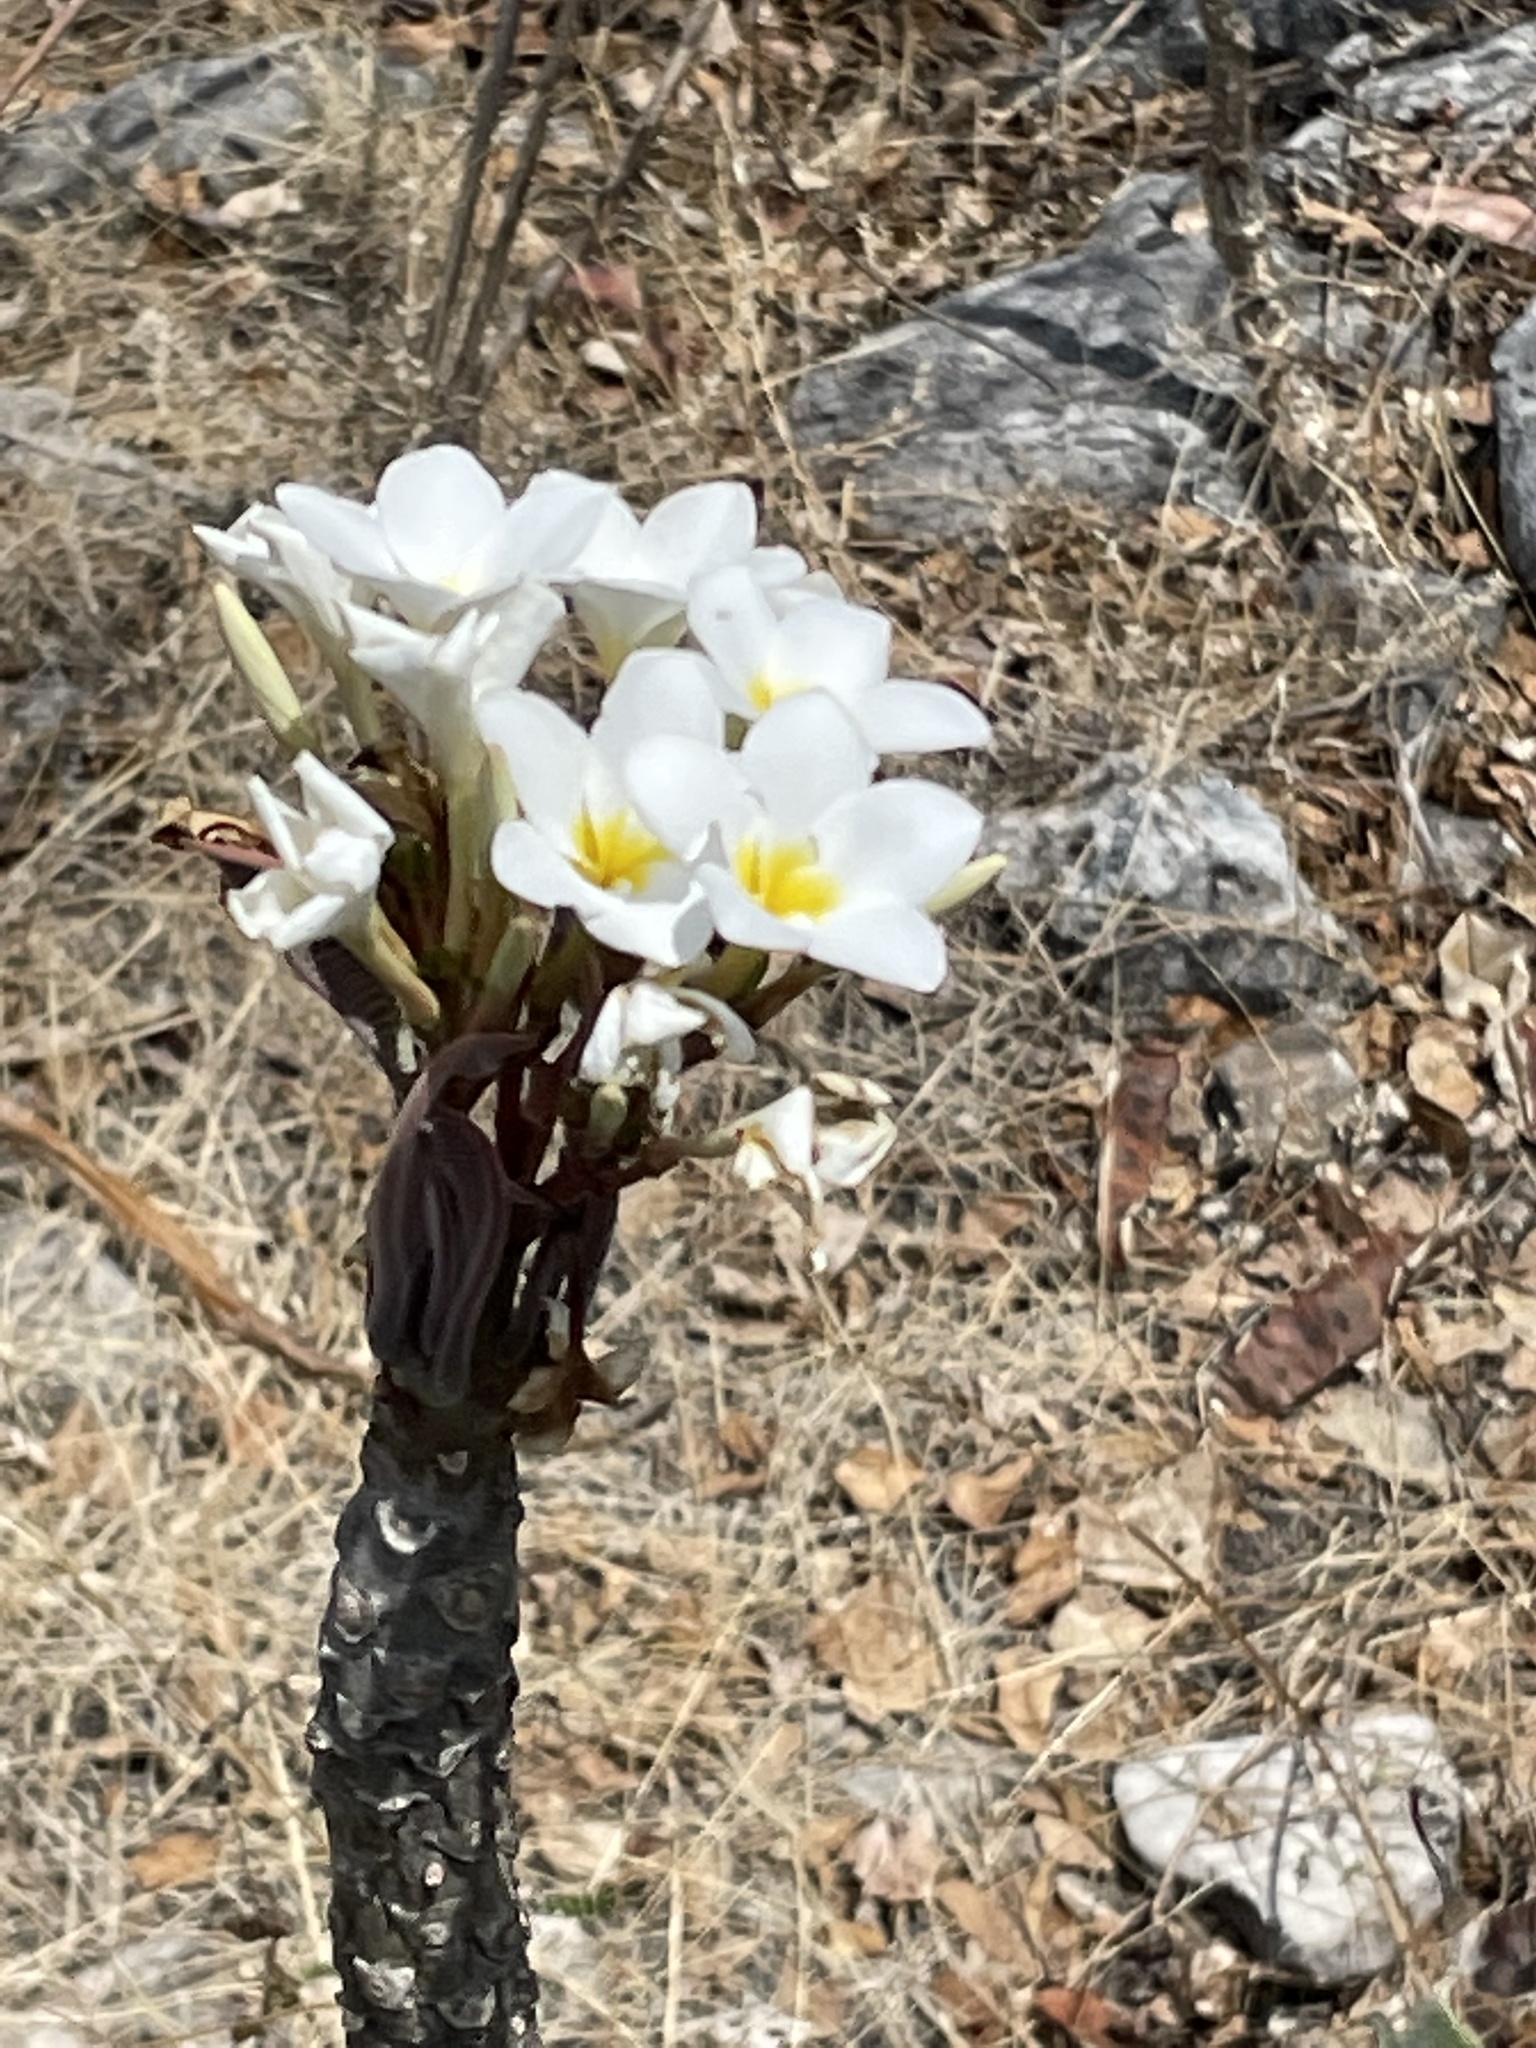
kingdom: Plantae
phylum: Tracheophyta
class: Magnoliopsida
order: Gentianales
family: Apocynaceae
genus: Plumeria
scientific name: Plumeria rubra
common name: Pagoda-tree
